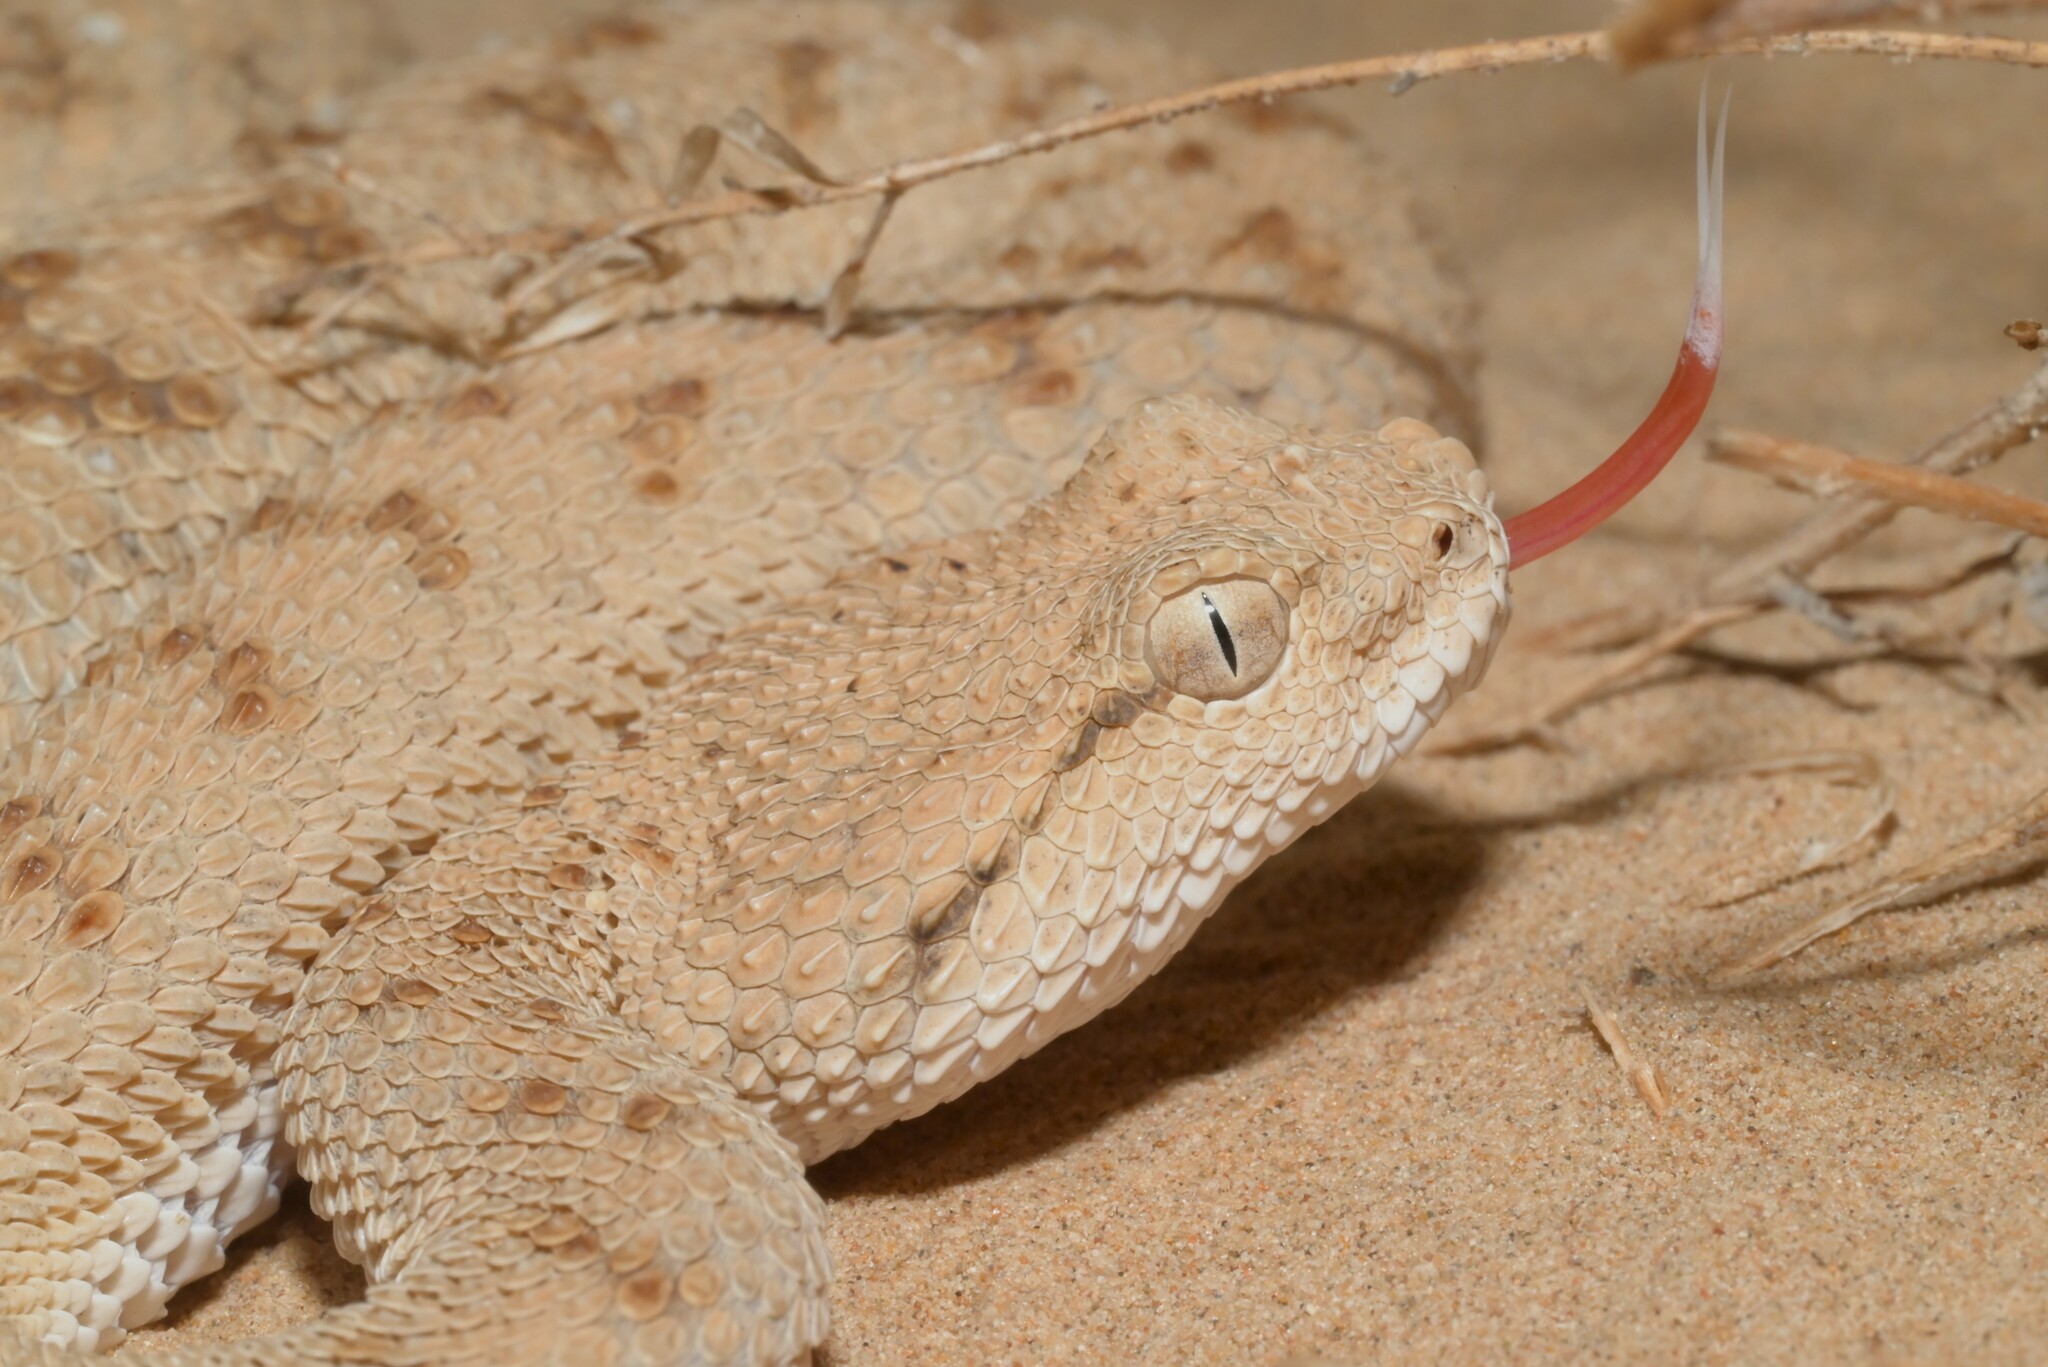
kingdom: Animalia
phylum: Chordata
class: Squamata
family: Viperidae
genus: Cerastes
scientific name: Cerastes gasperettii
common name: Arabian horned viper
